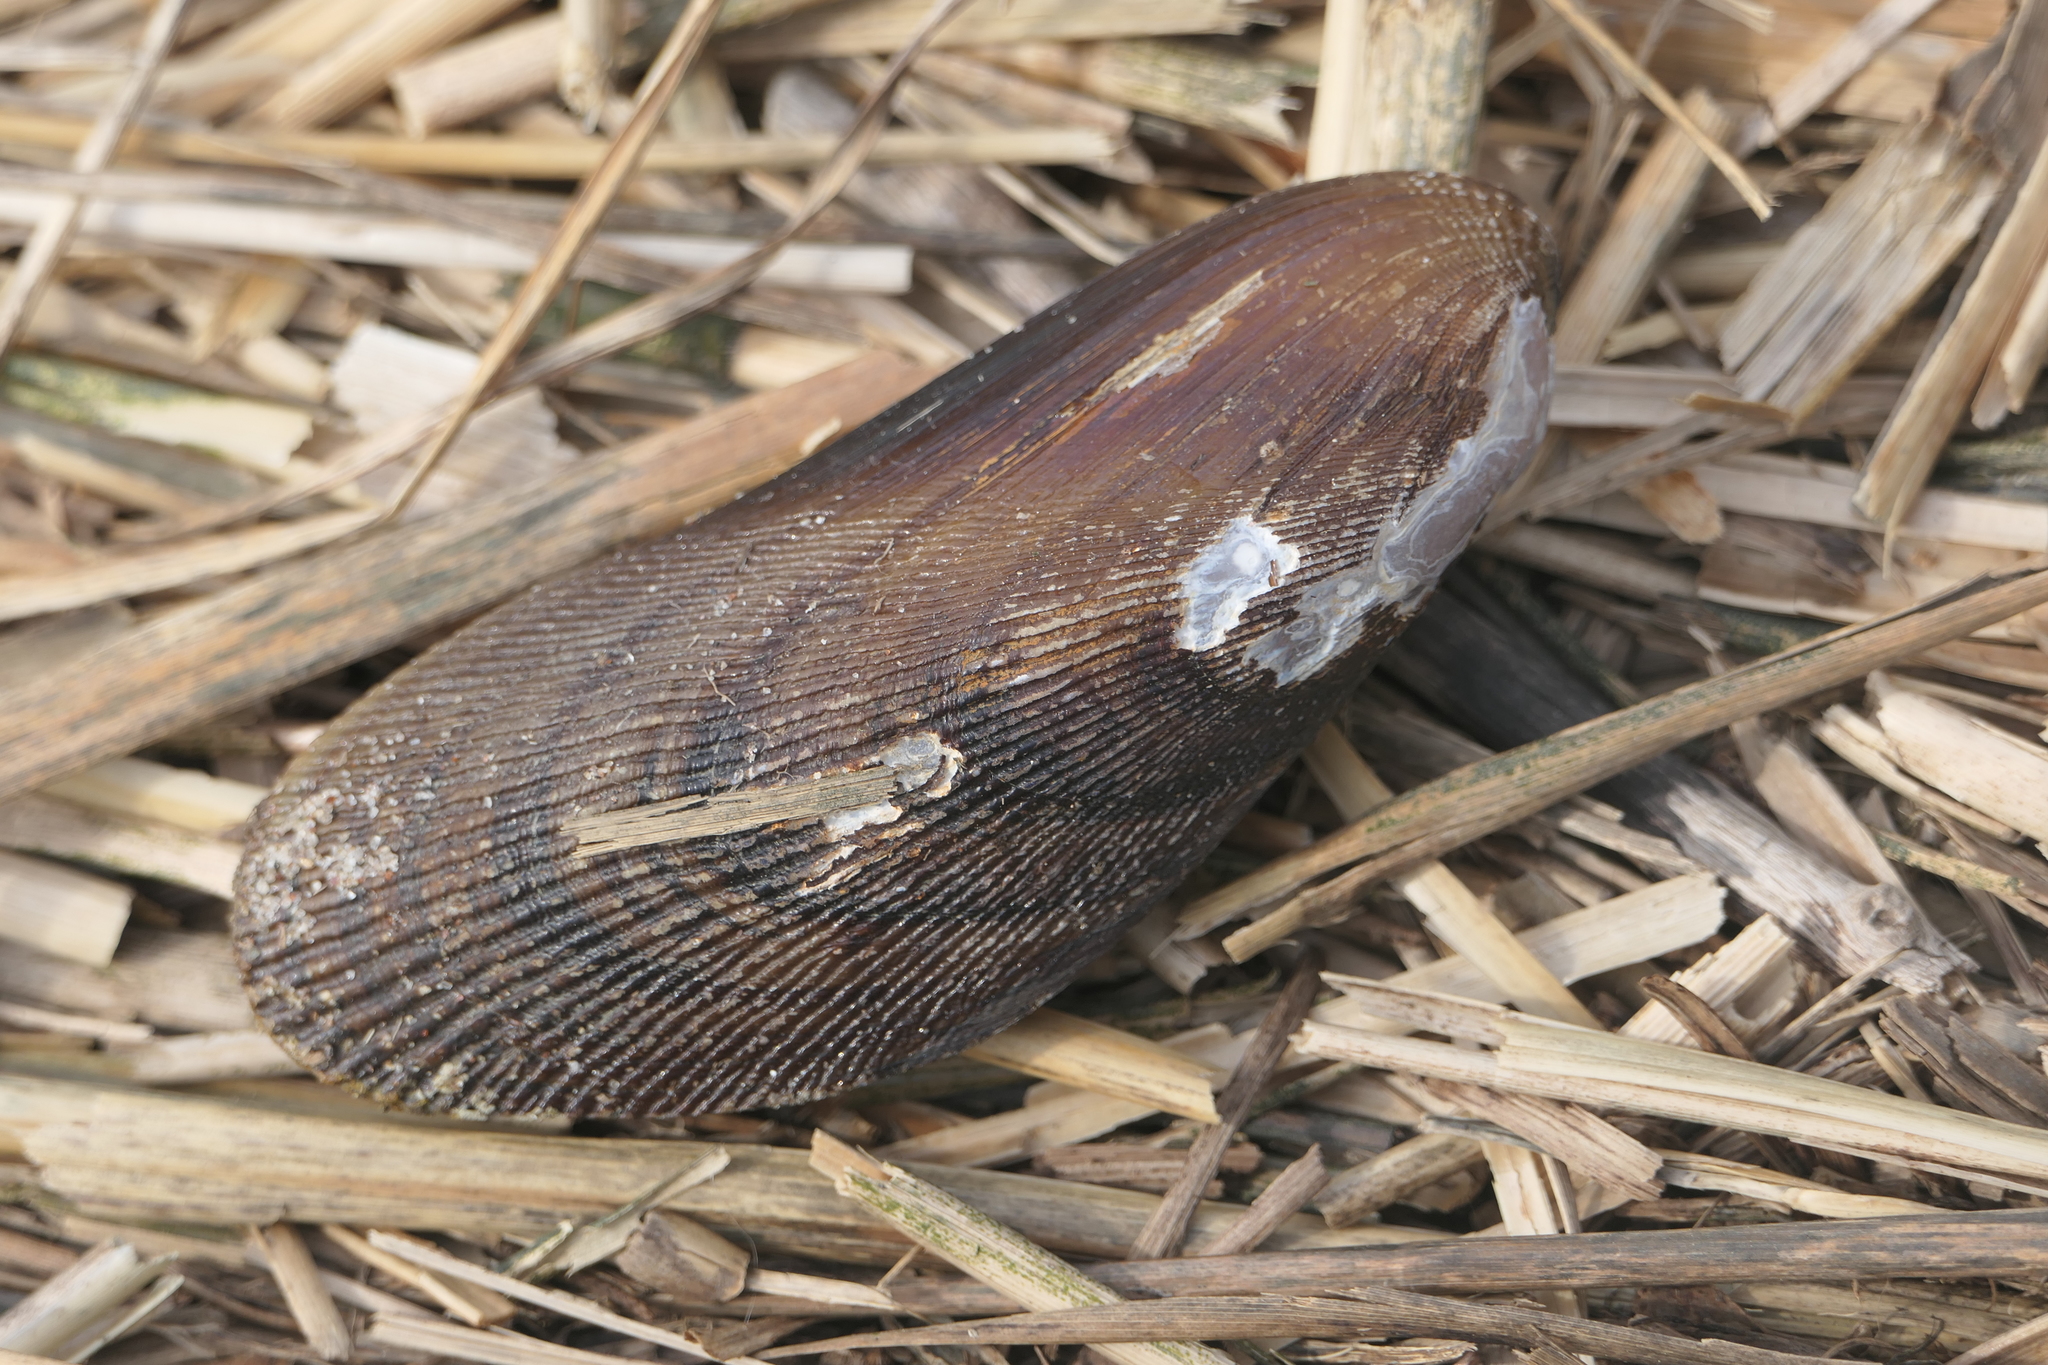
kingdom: Animalia
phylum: Mollusca
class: Bivalvia
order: Mytilida
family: Mytilidae
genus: Geukensia
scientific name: Geukensia demissa
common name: Ribbed mussel
